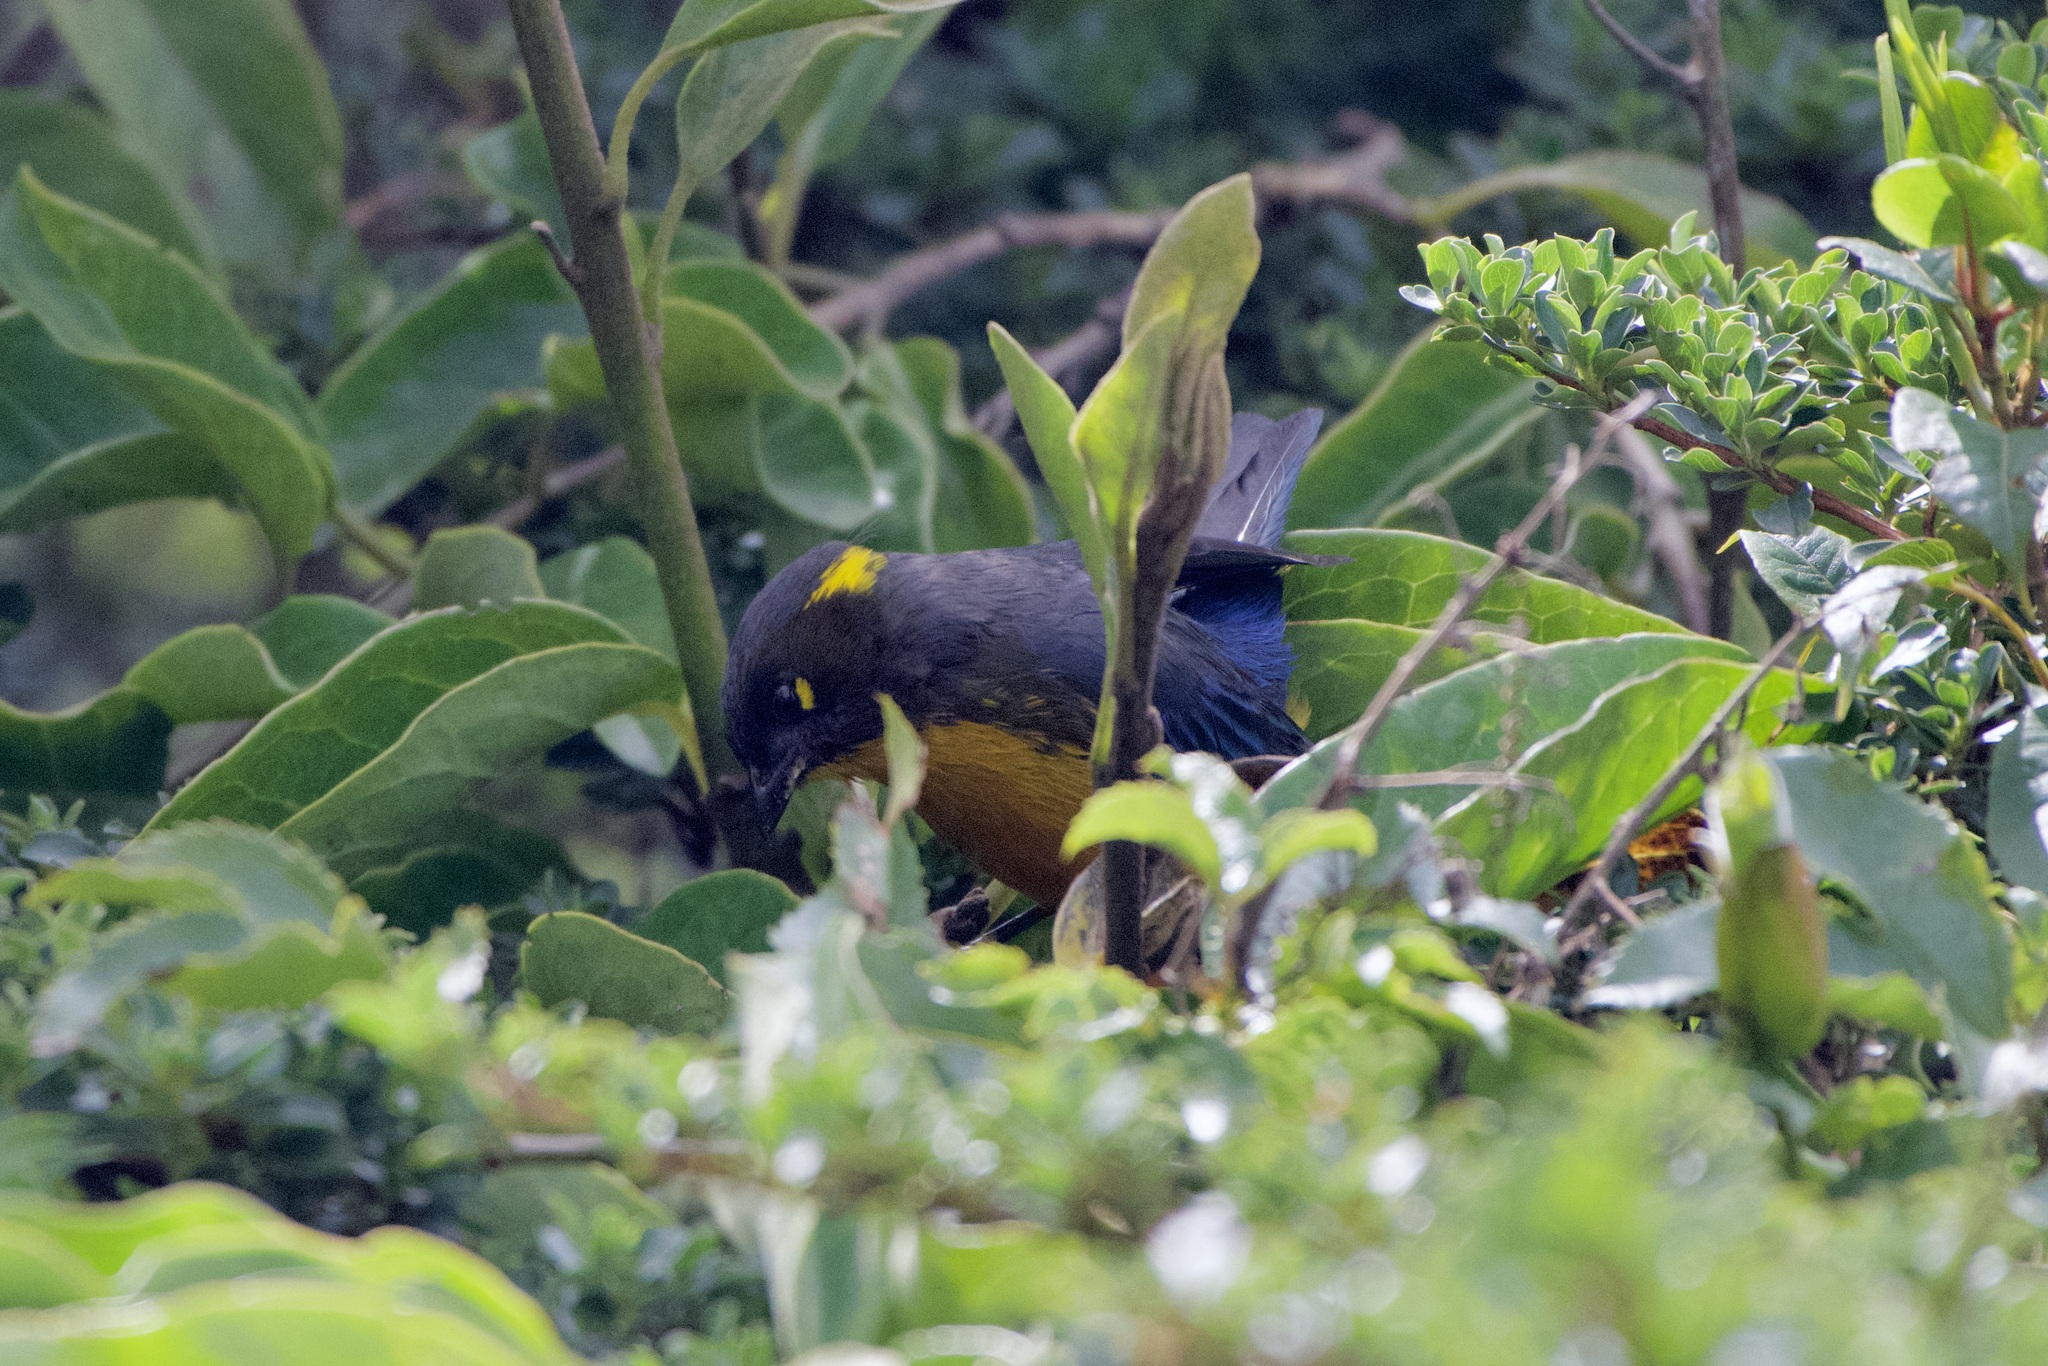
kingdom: Animalia
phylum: Chordata
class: Aves
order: Passeriformes
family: Thraupidae
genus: Anisognathus
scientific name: Anisognathus lacrymosus
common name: Lacrimose mountain-tanager
